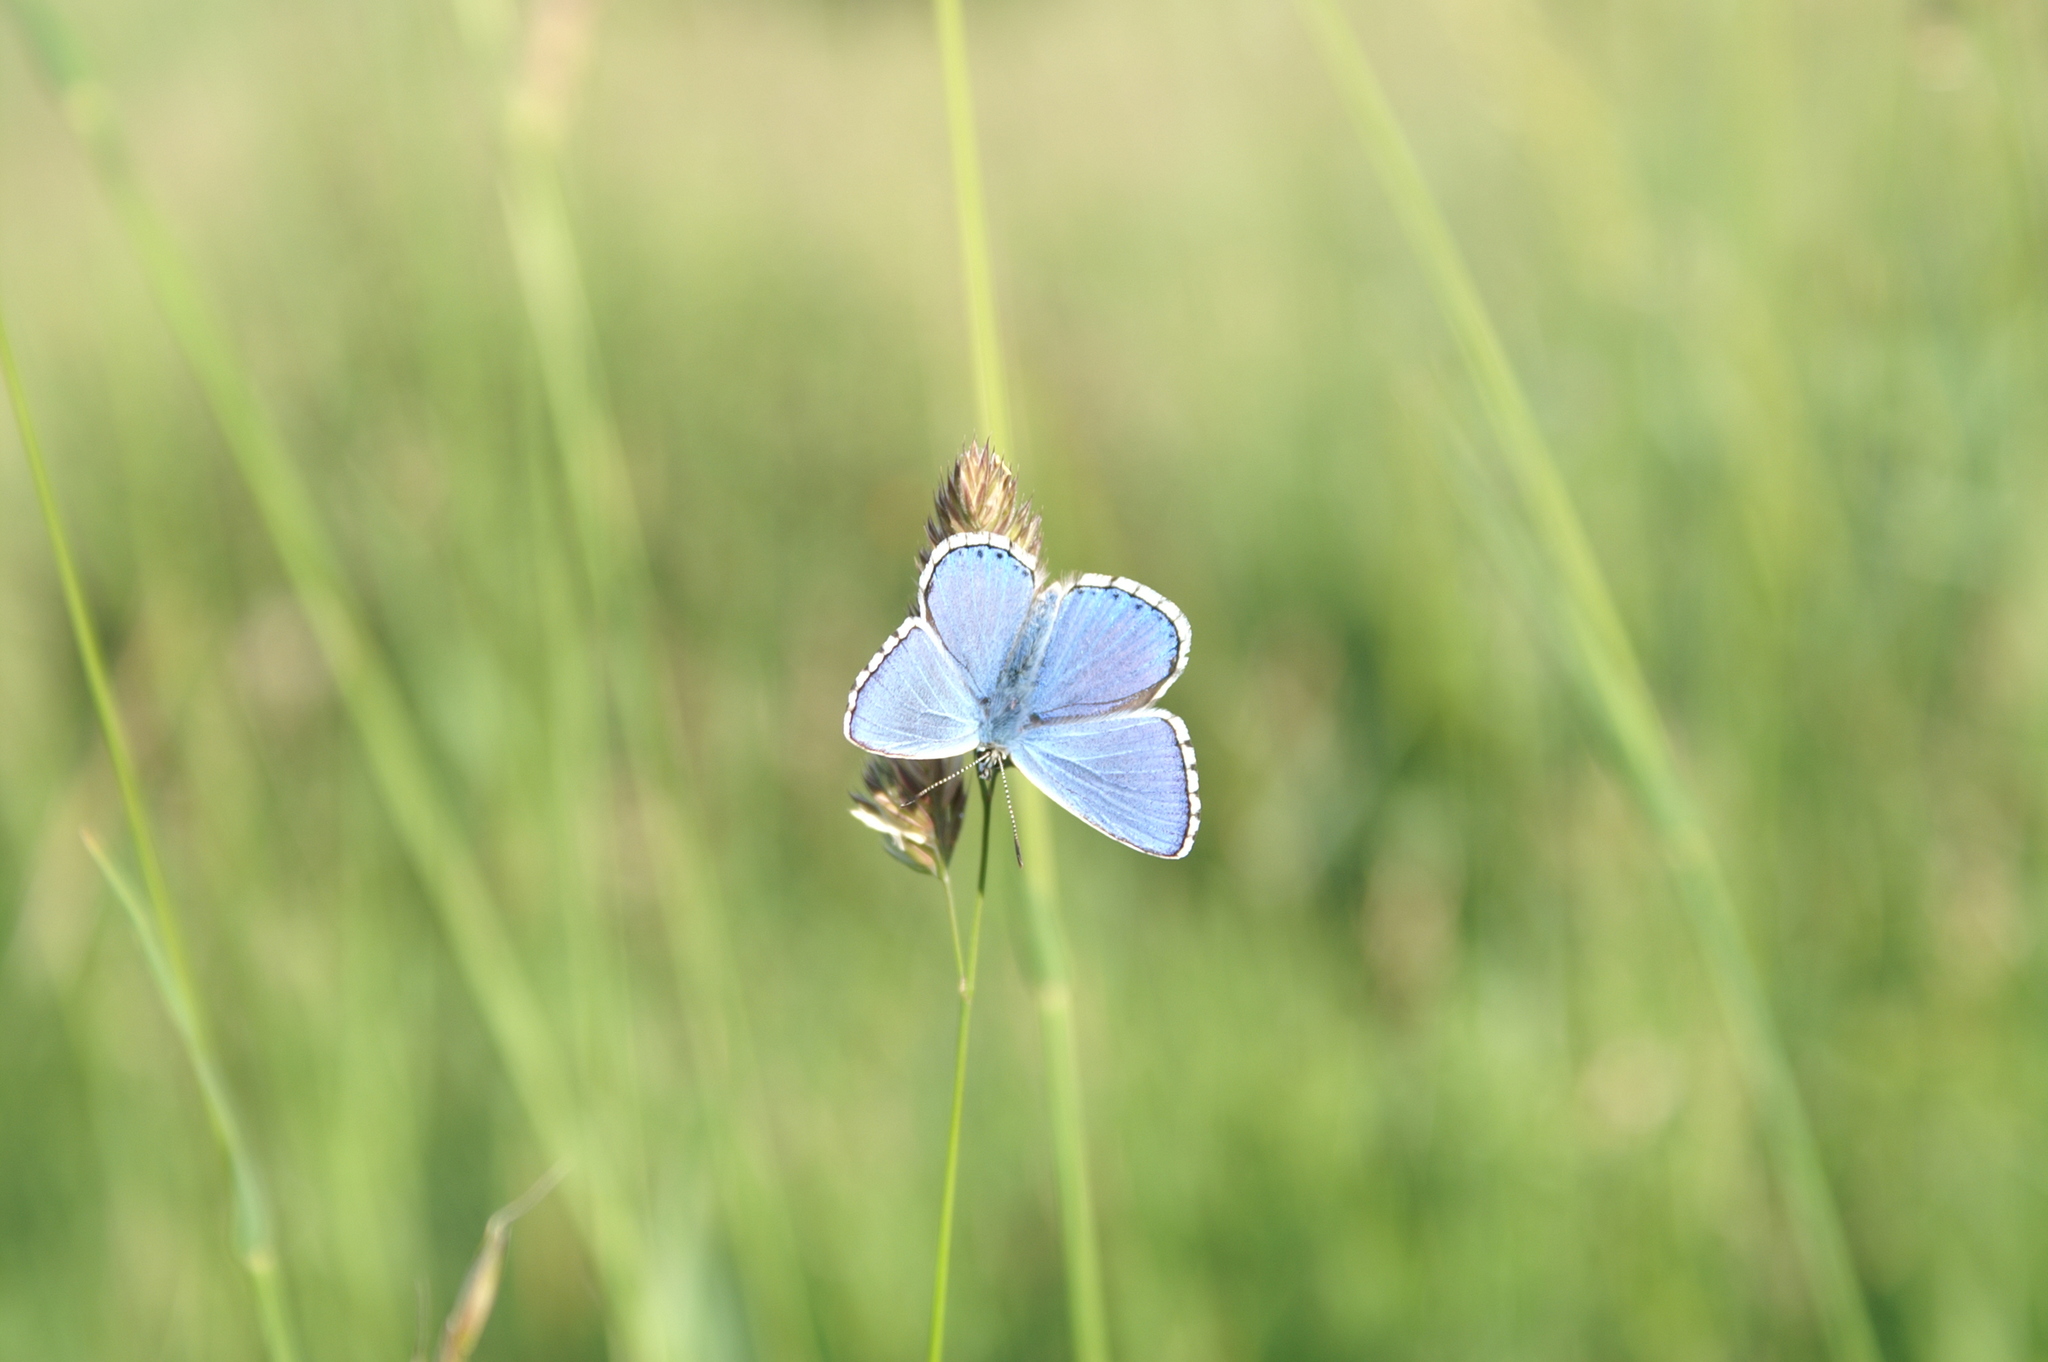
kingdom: Animalia
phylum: Arthropoda
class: Insecta
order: Lepidoptera
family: Lycaenidae
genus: Lysandra
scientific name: Lysandra bellargus
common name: Adonis blue
